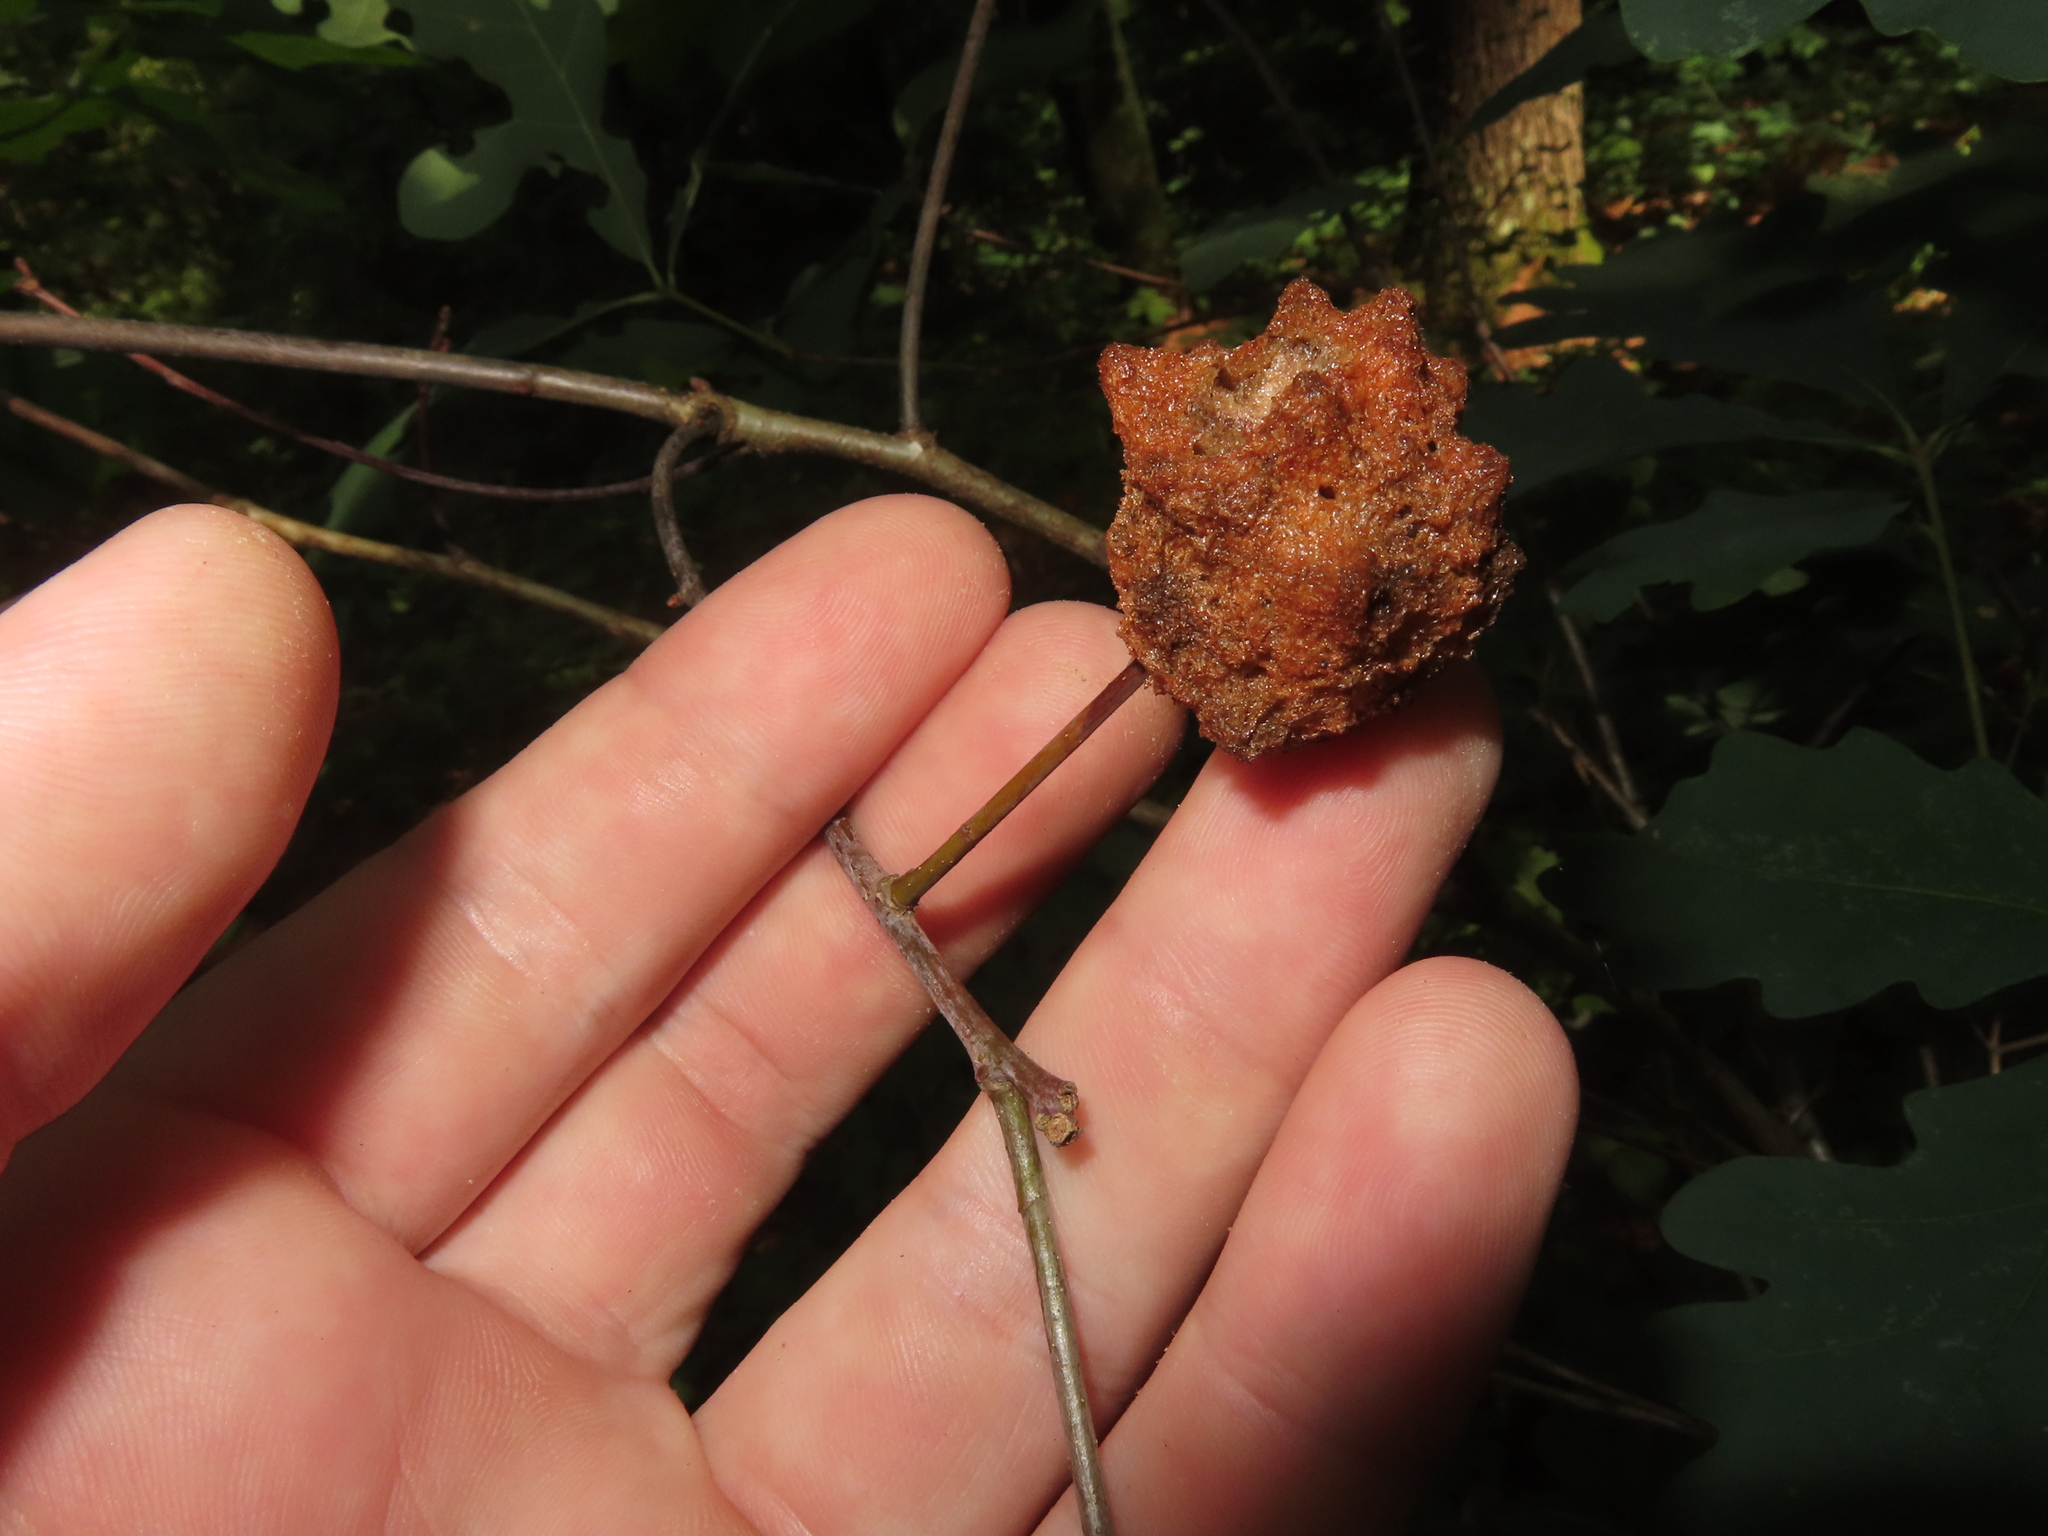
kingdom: Animalia
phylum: Arthropoda
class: Insecta
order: Hymenoptera
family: Cynipidae
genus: Callirhytis
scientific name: Callirhytis
